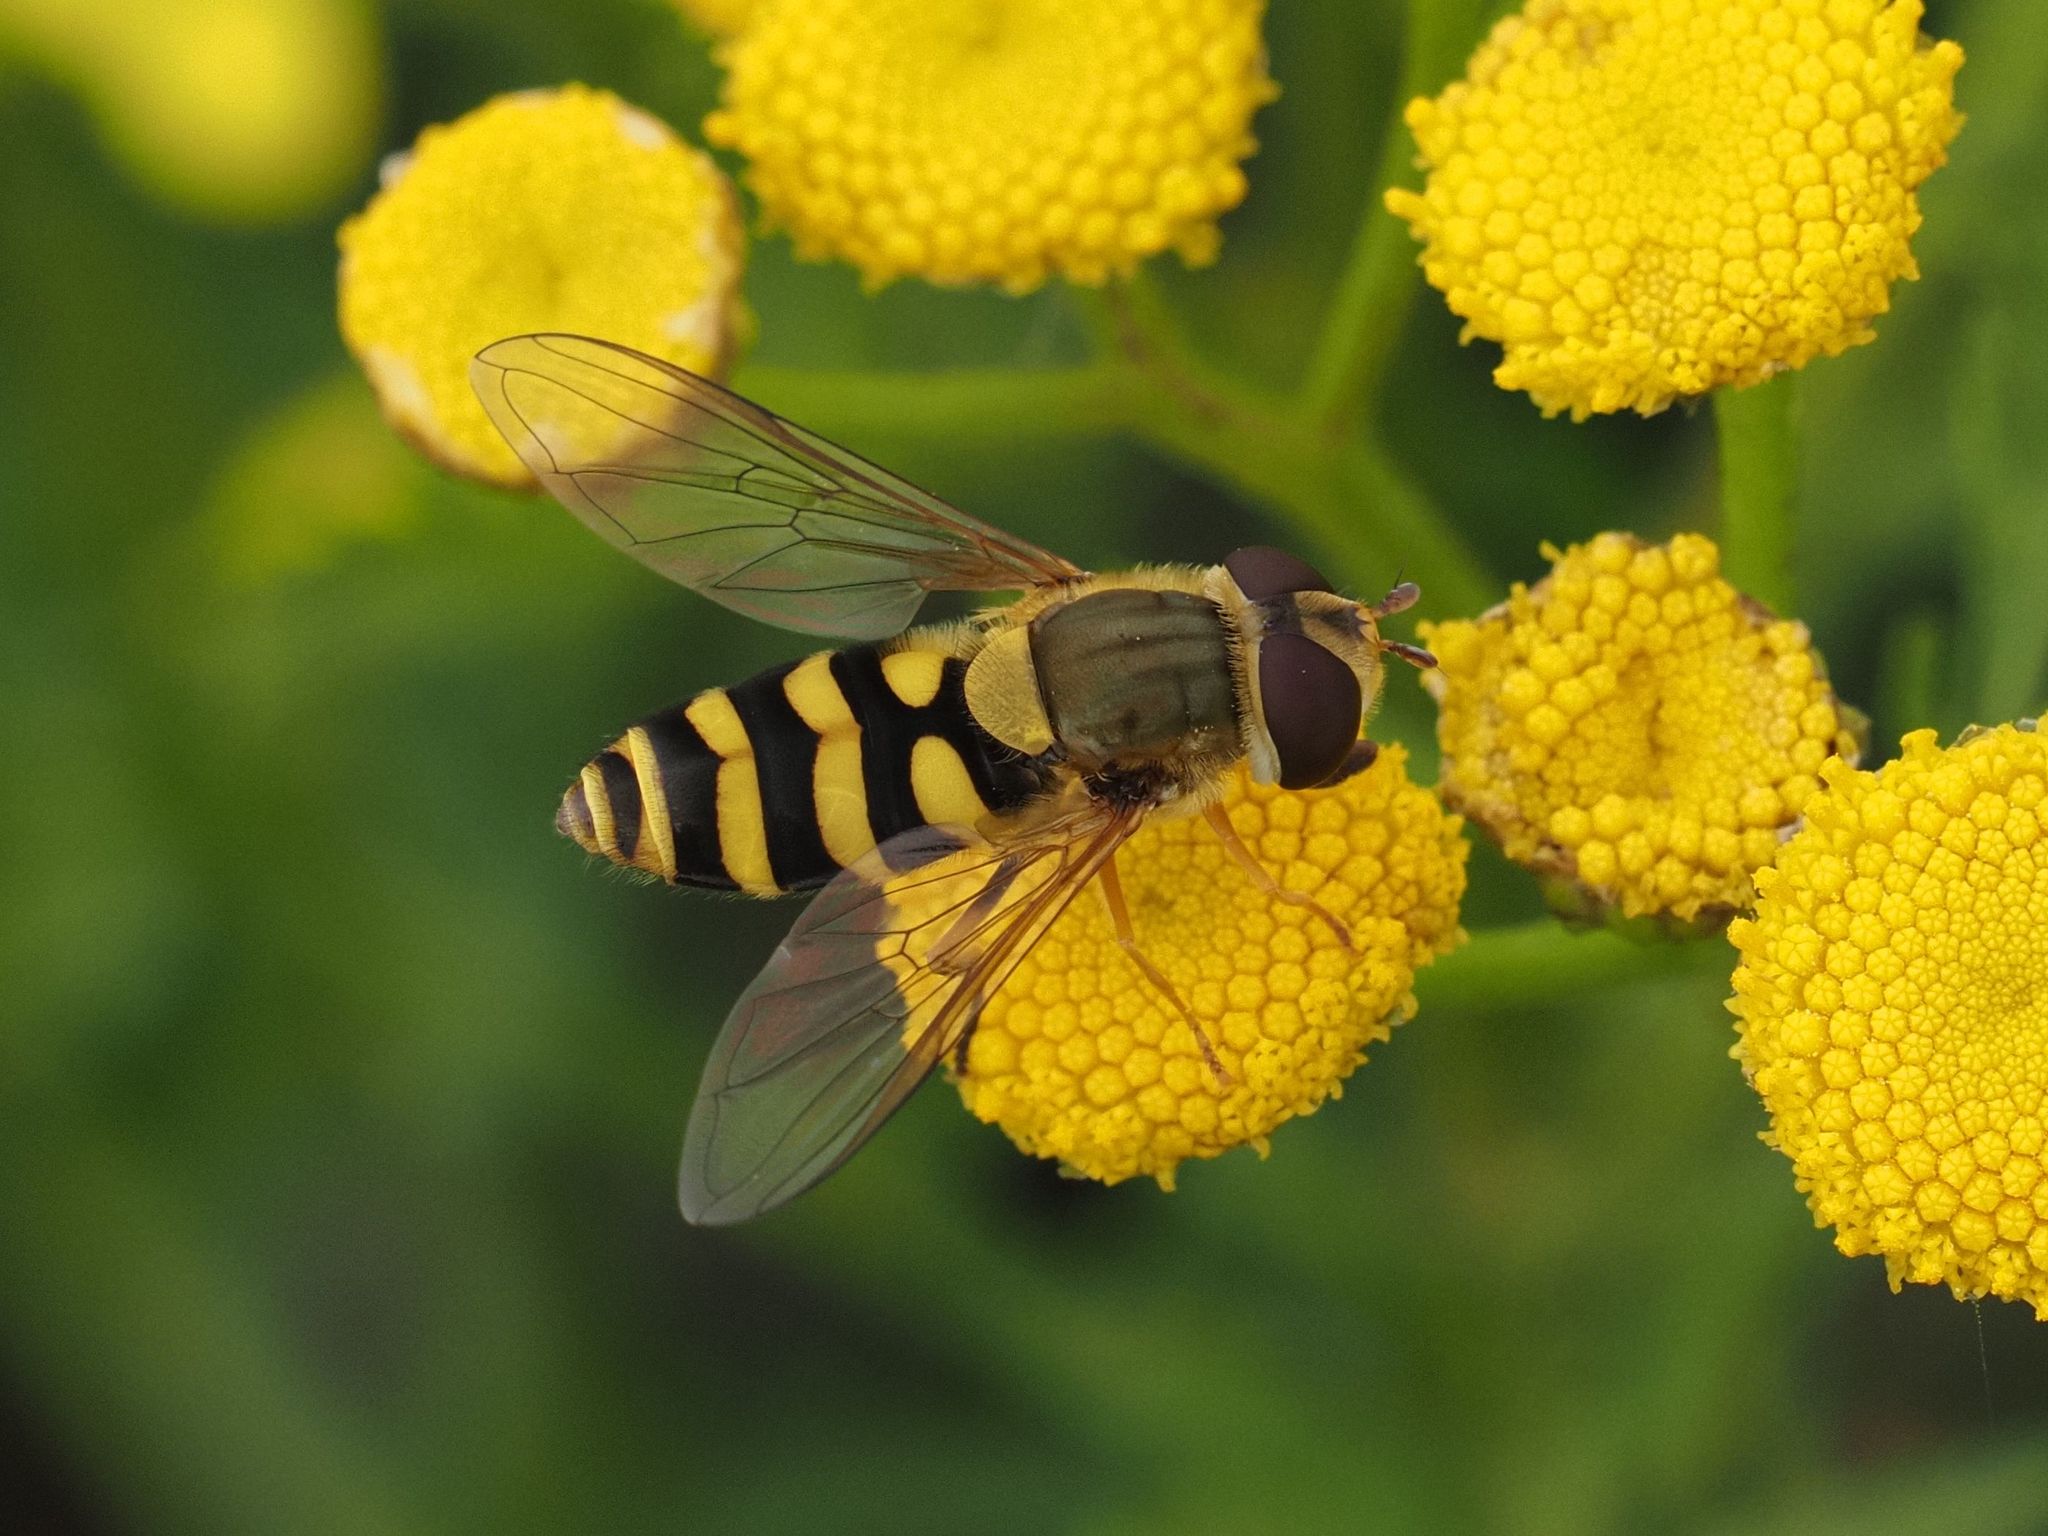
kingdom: Animalia
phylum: Arthropoda
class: Insecta
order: Diptera
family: Syrphidae
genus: Syrphus
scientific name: Syrphus
